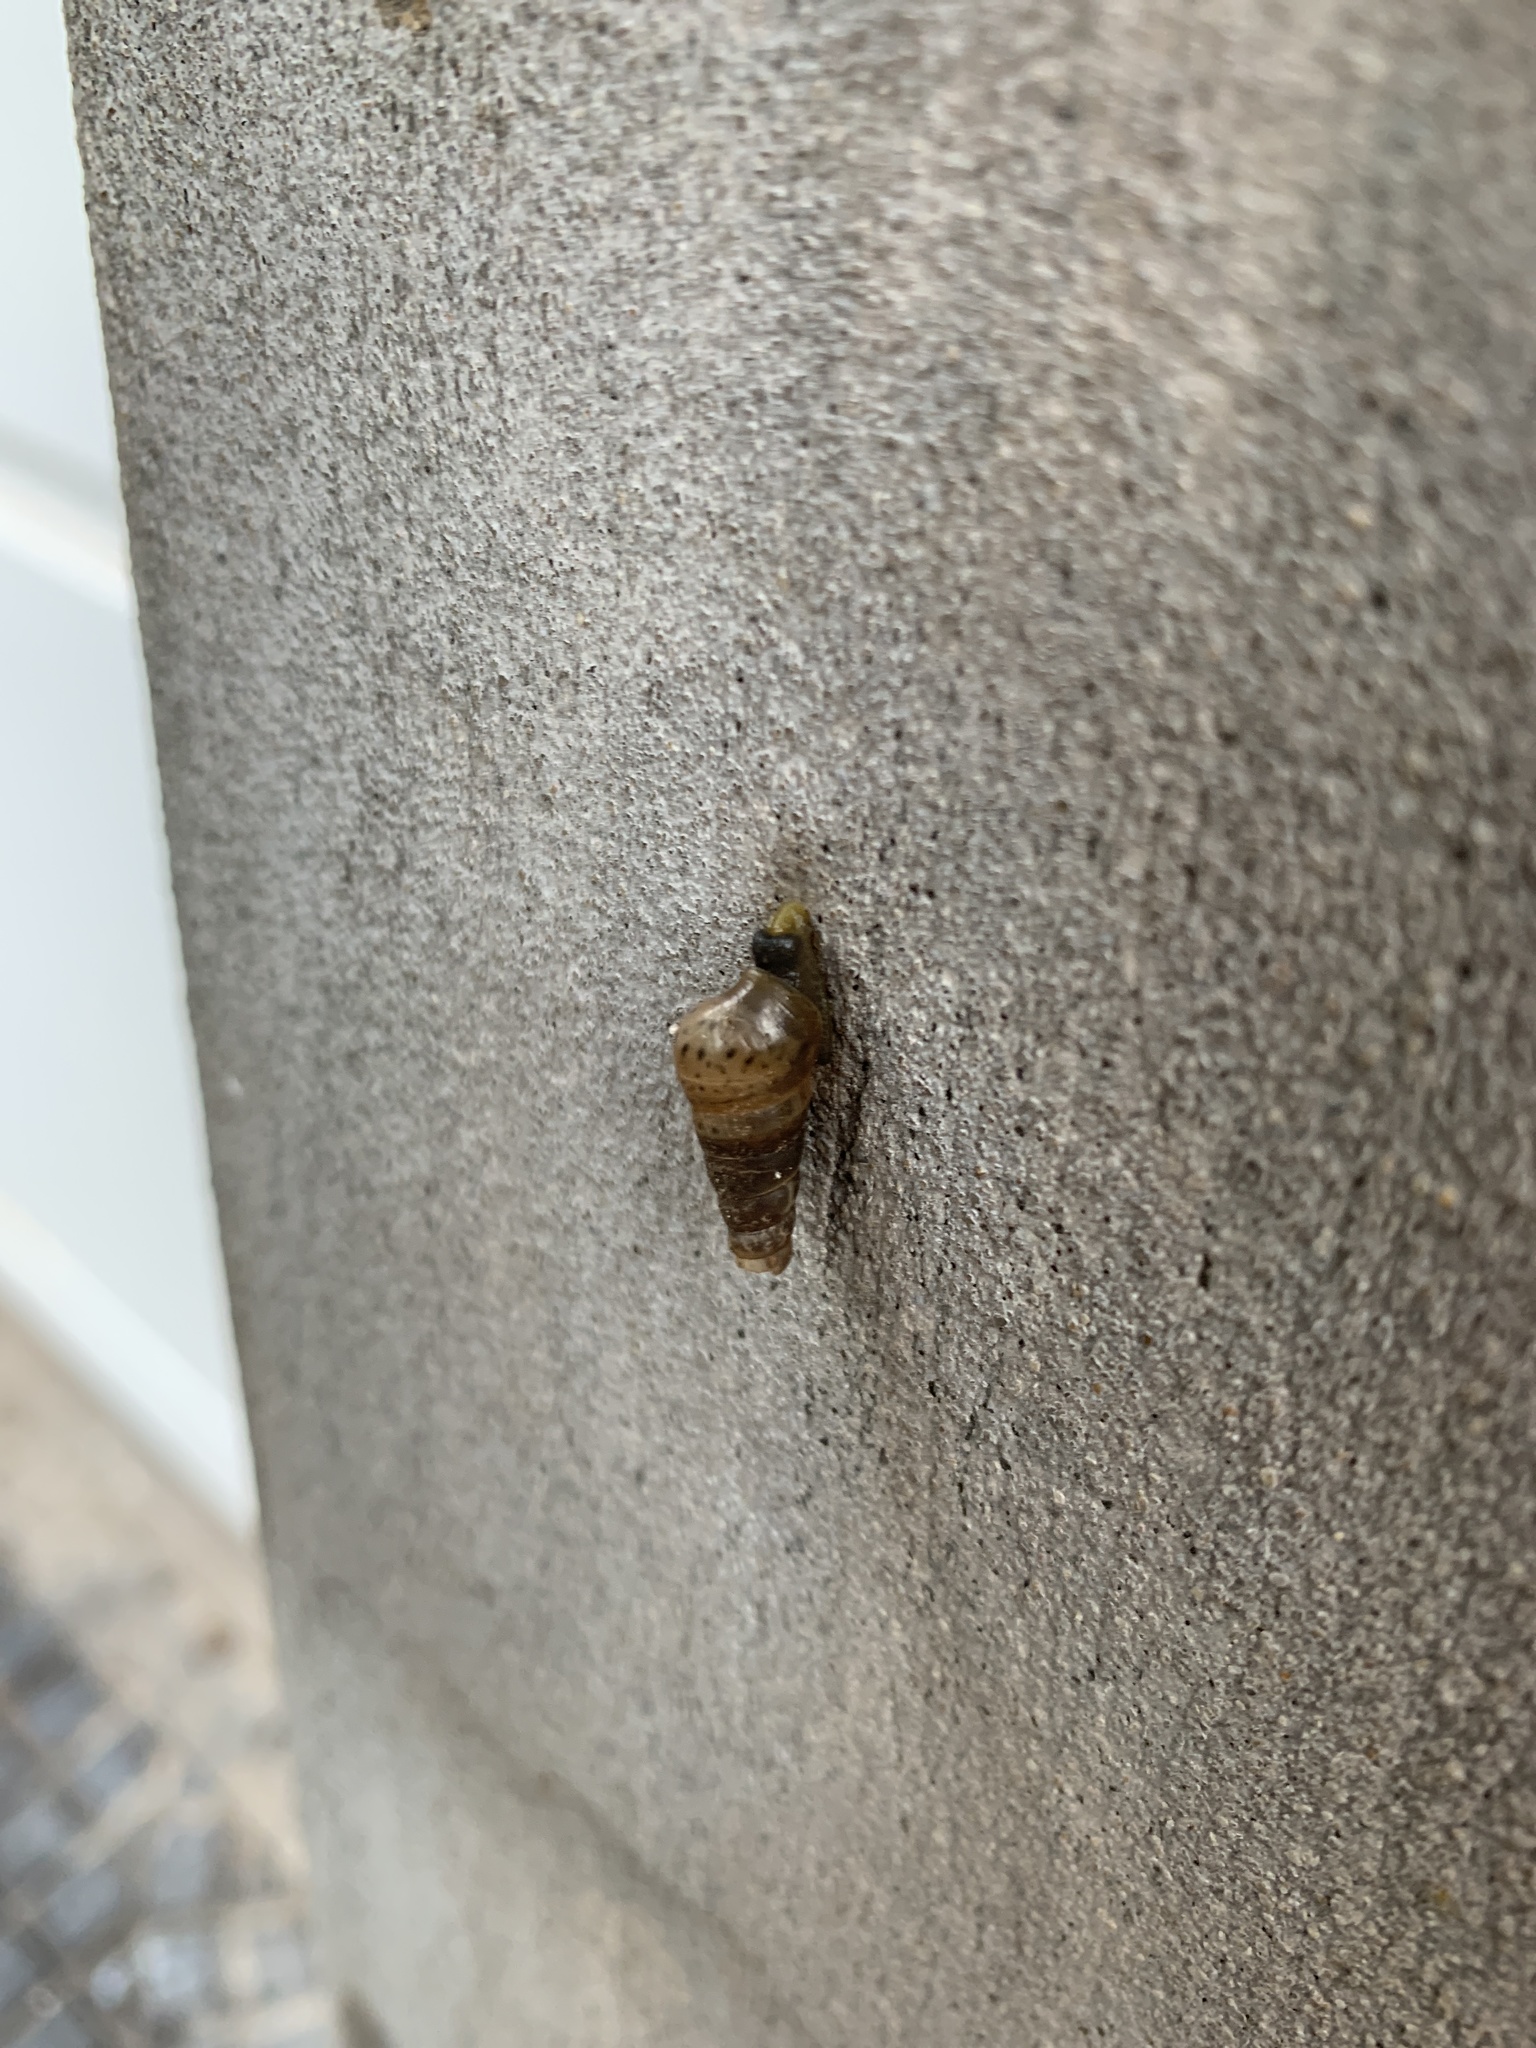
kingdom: Animalia
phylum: Mollusca
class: Gastropoda
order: Stylommatophora
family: Achatinidae
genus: Rumina
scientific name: Rumina decollata
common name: Decollate snail
